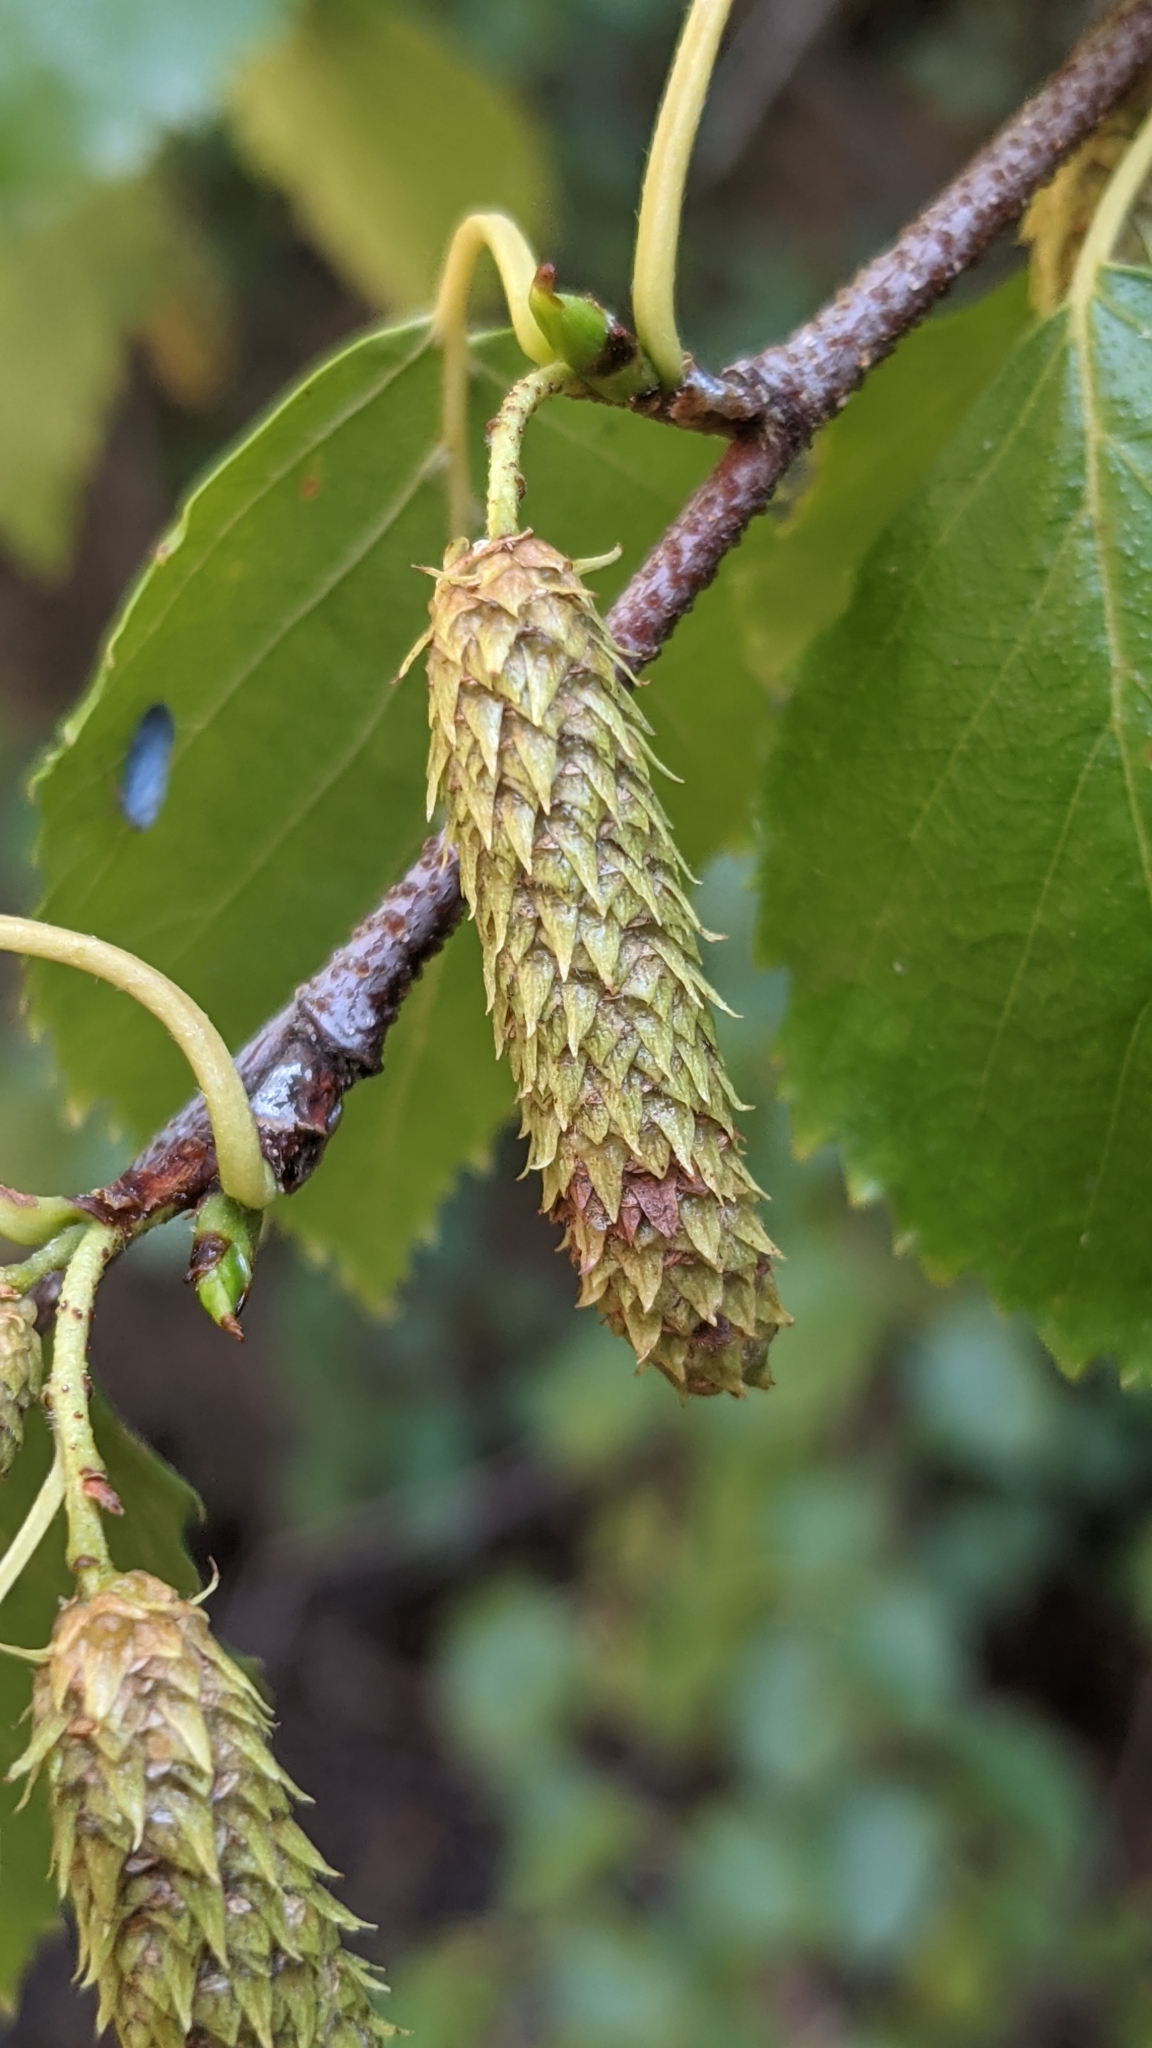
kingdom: Plantae
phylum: Tracheophyta
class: Magnoliopsida
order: Fagales
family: Betulaceae
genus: Betula
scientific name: Betula occidentalis
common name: River birch
